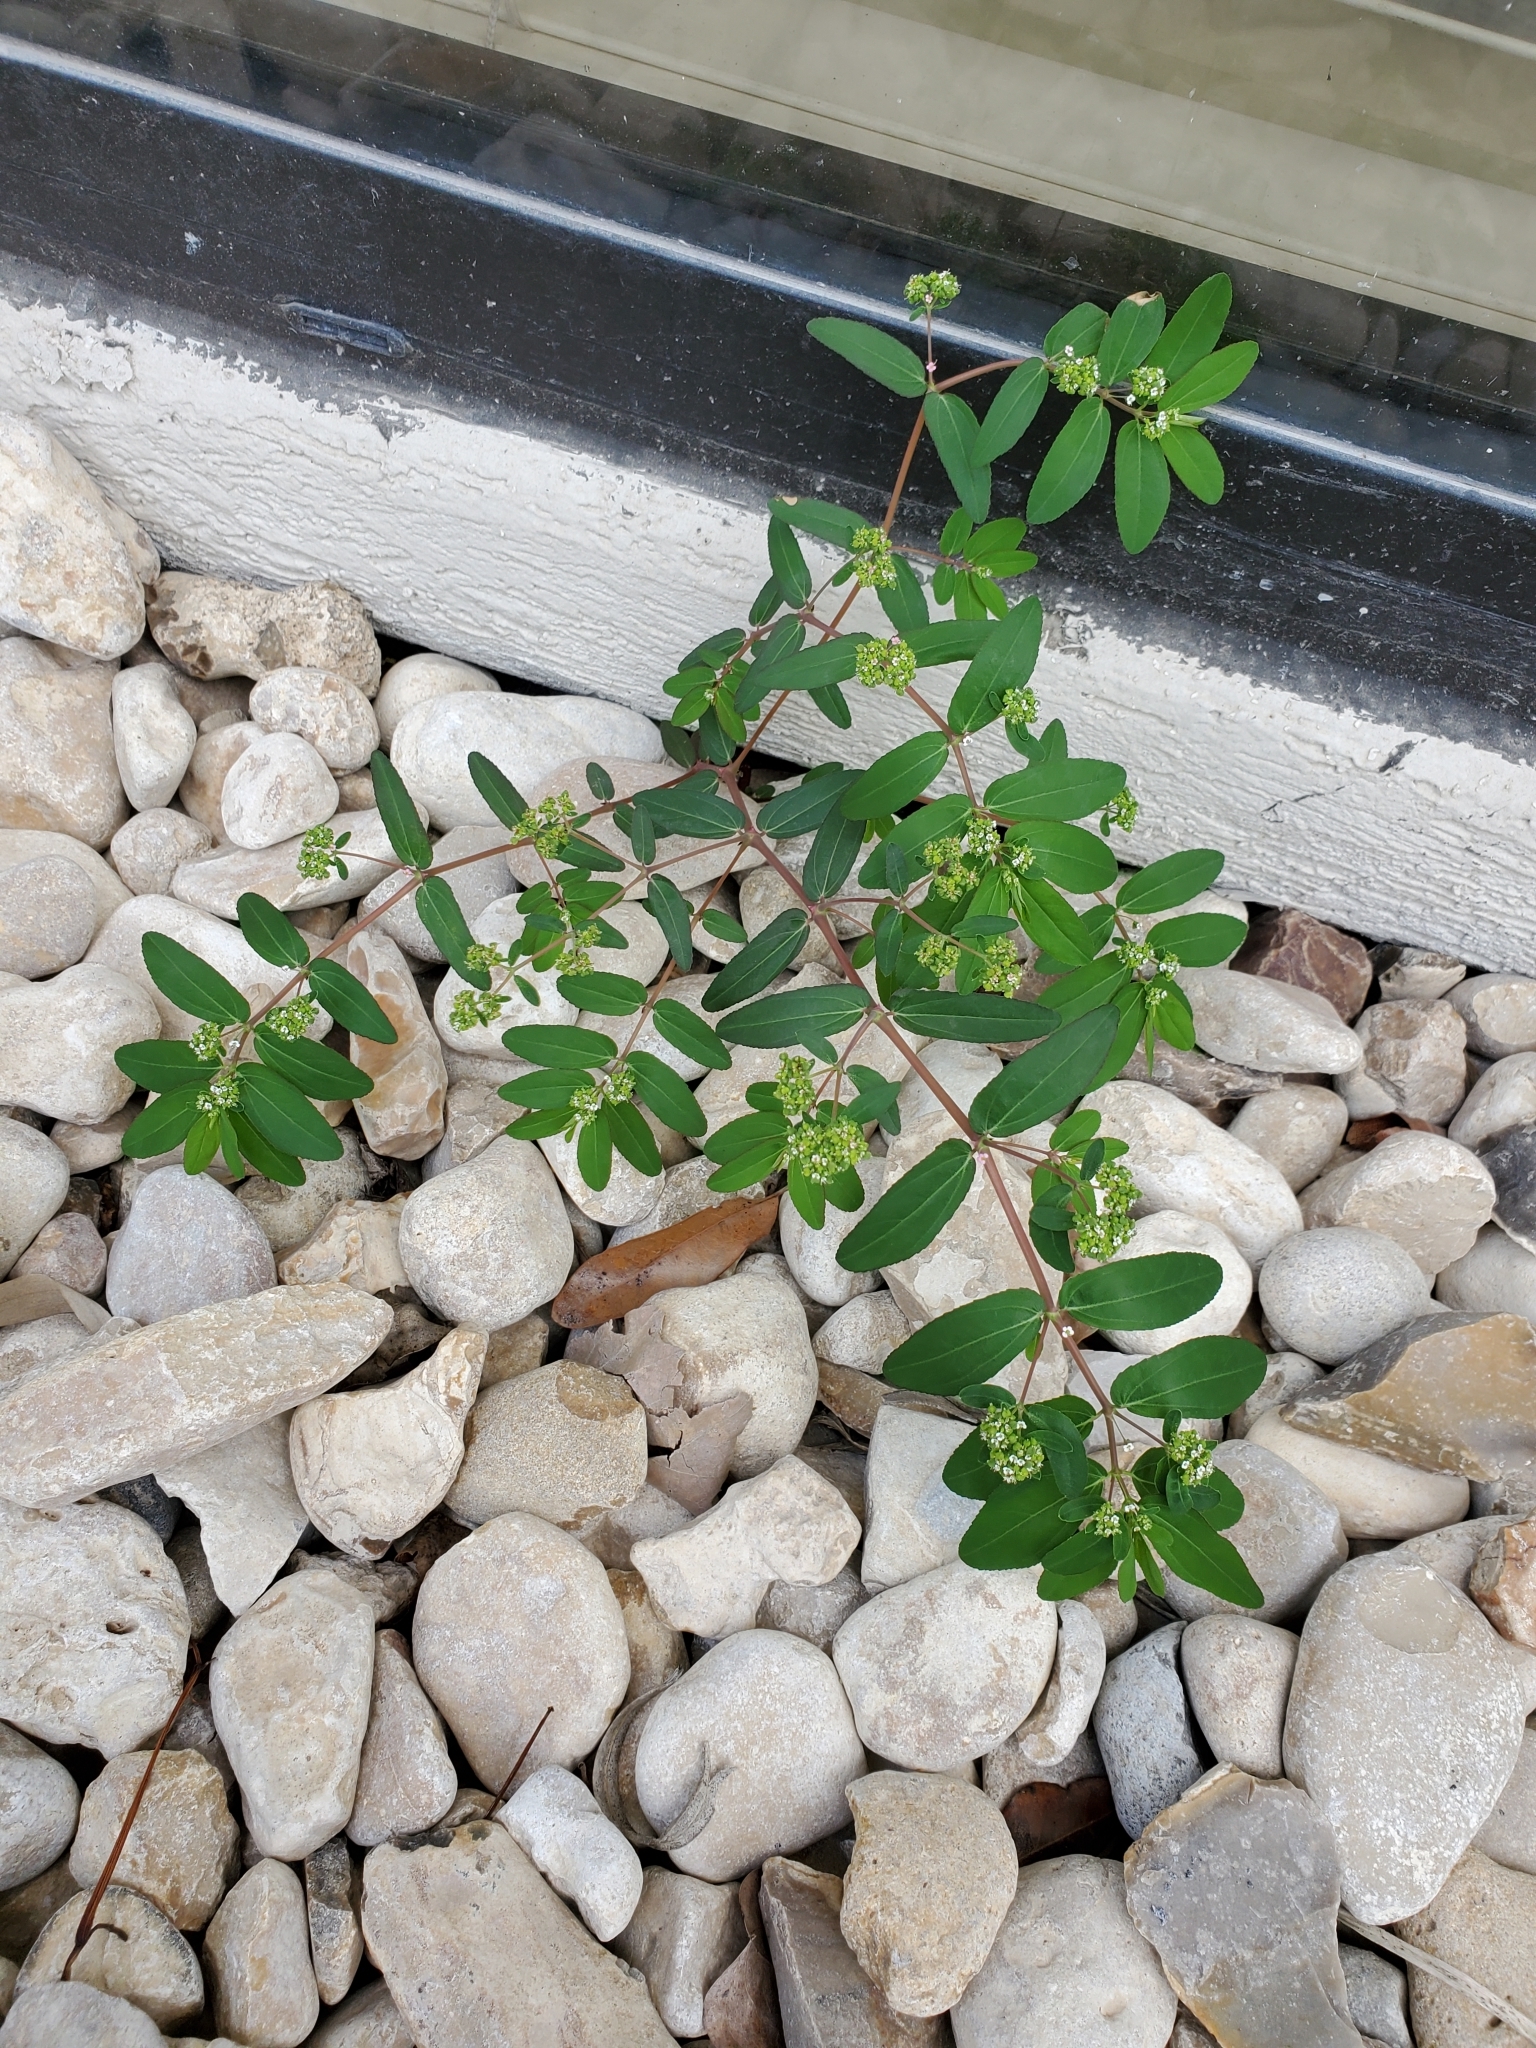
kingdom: Plantae
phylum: Tracheophyta
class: Magnoliopsida
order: Malpighiales
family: Euphorbiaceae
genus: Euphorbia
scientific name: Euphorbia hypericifolia
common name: Graceful sandmat
